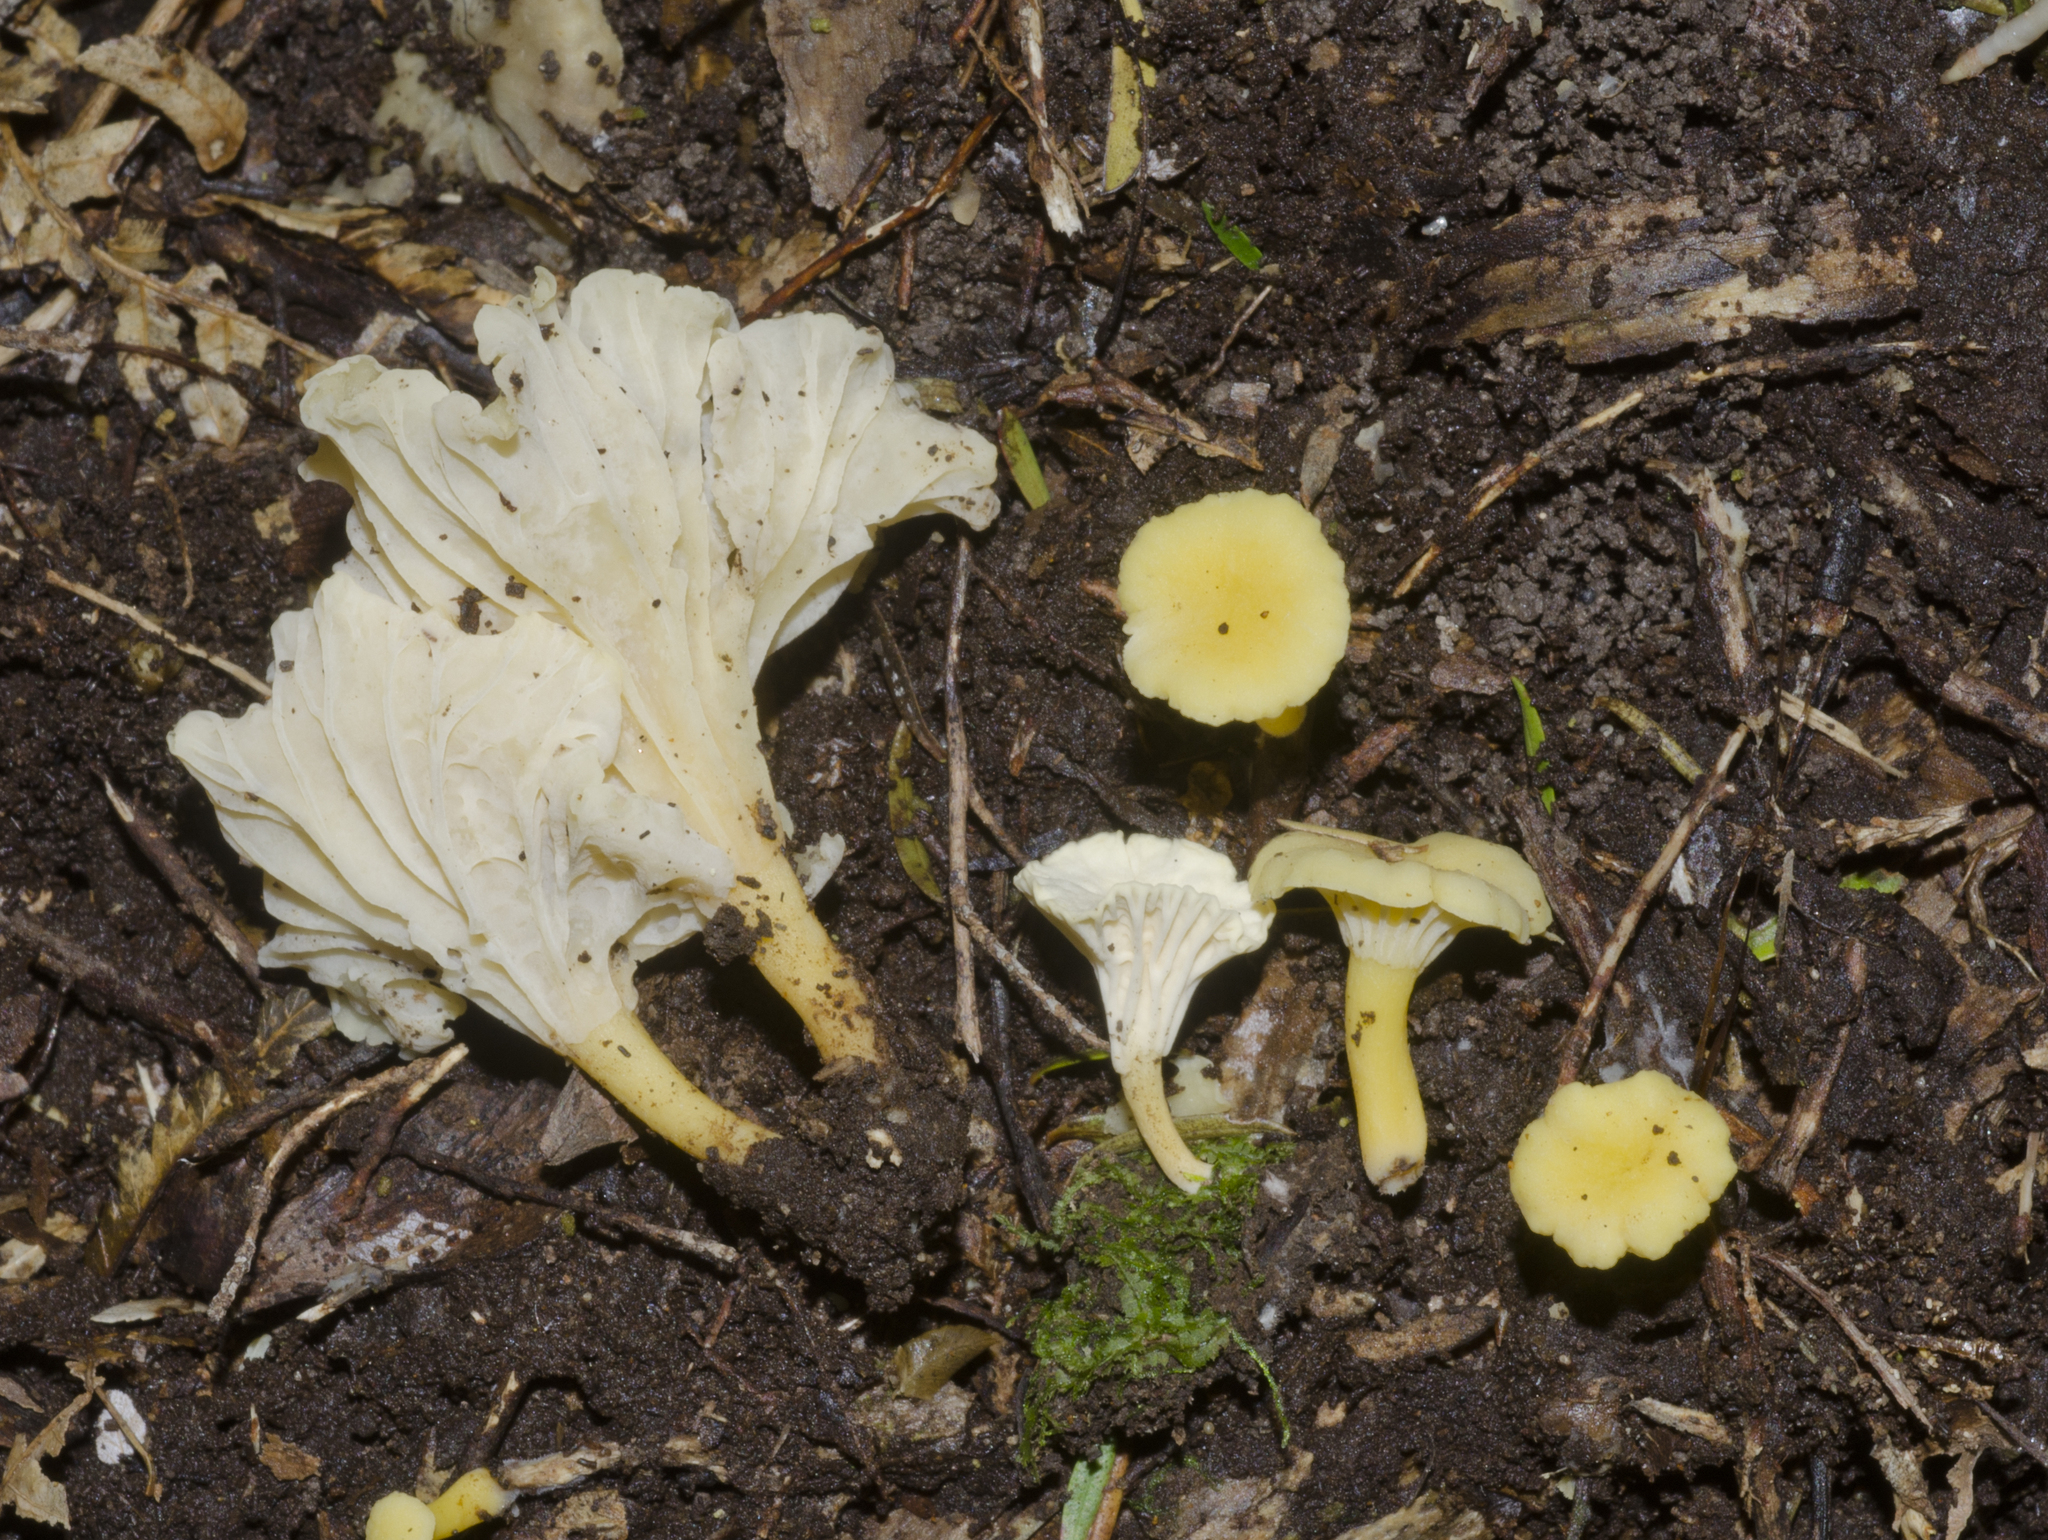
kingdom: Fungi
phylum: Basidiomycota
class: Agaricomycetes
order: Cantharellales
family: Hydnaceae
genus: Cantharellus
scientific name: Cantharellus wellingtonensis
